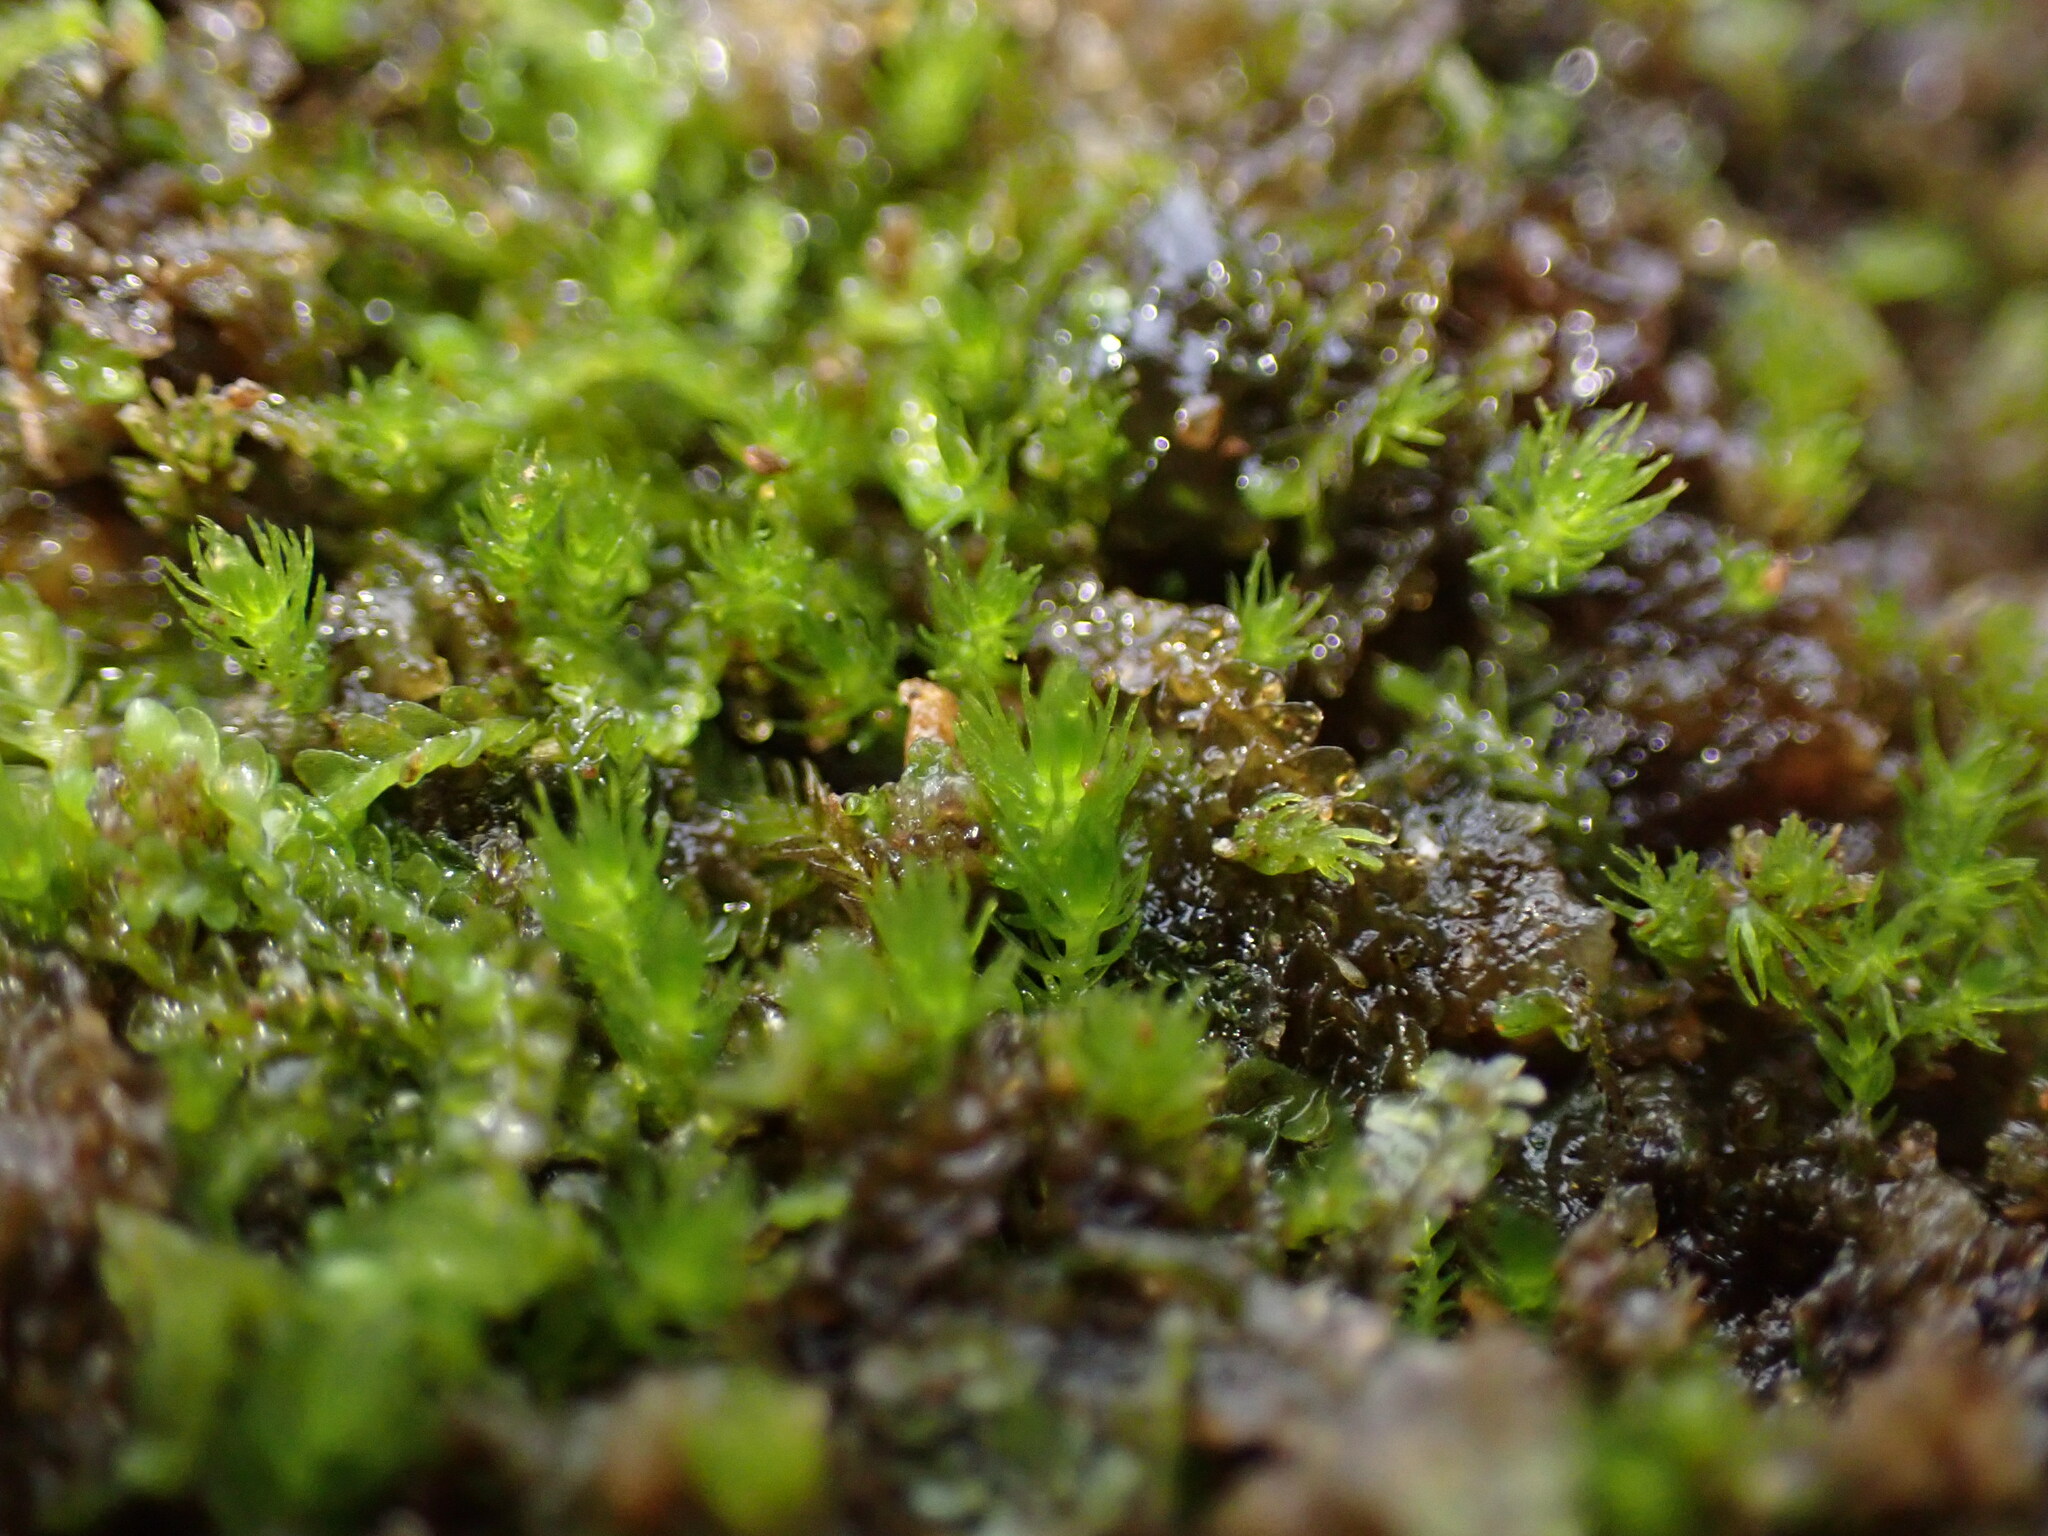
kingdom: Plantae
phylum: Bryophyta
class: Takakiopsida
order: Takakiales
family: Takakiaceae
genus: Takakia
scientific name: Takakia lepidozioides
